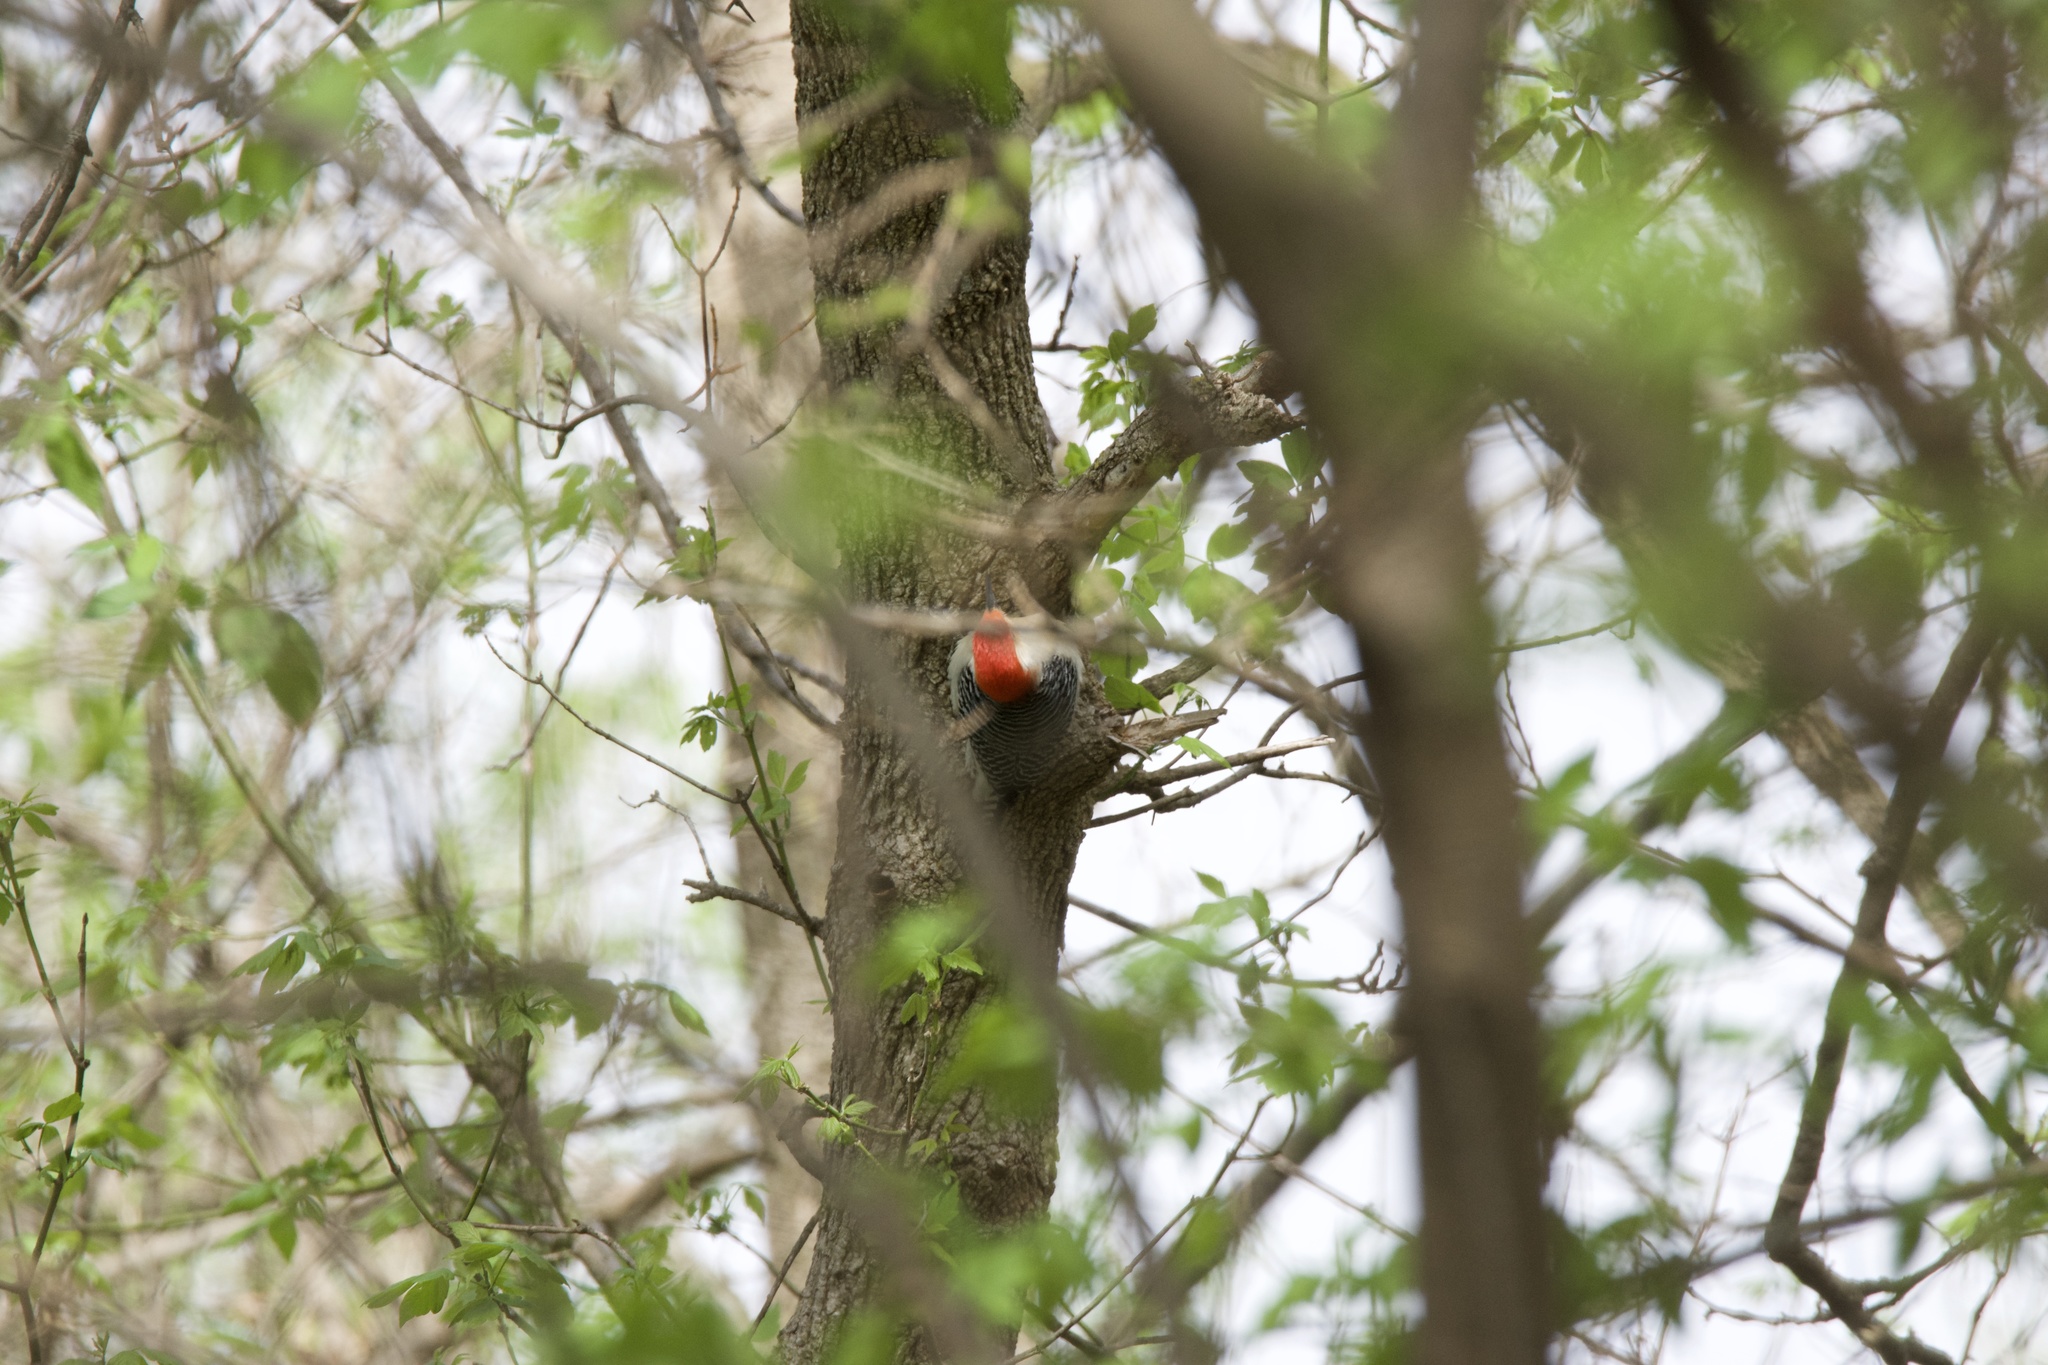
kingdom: Animalia
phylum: Chordata
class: Aves
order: Piciformes
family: Picidae
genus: Melanerpes
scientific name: Melanerpes carolinus
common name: Red-bellied woodpecker
